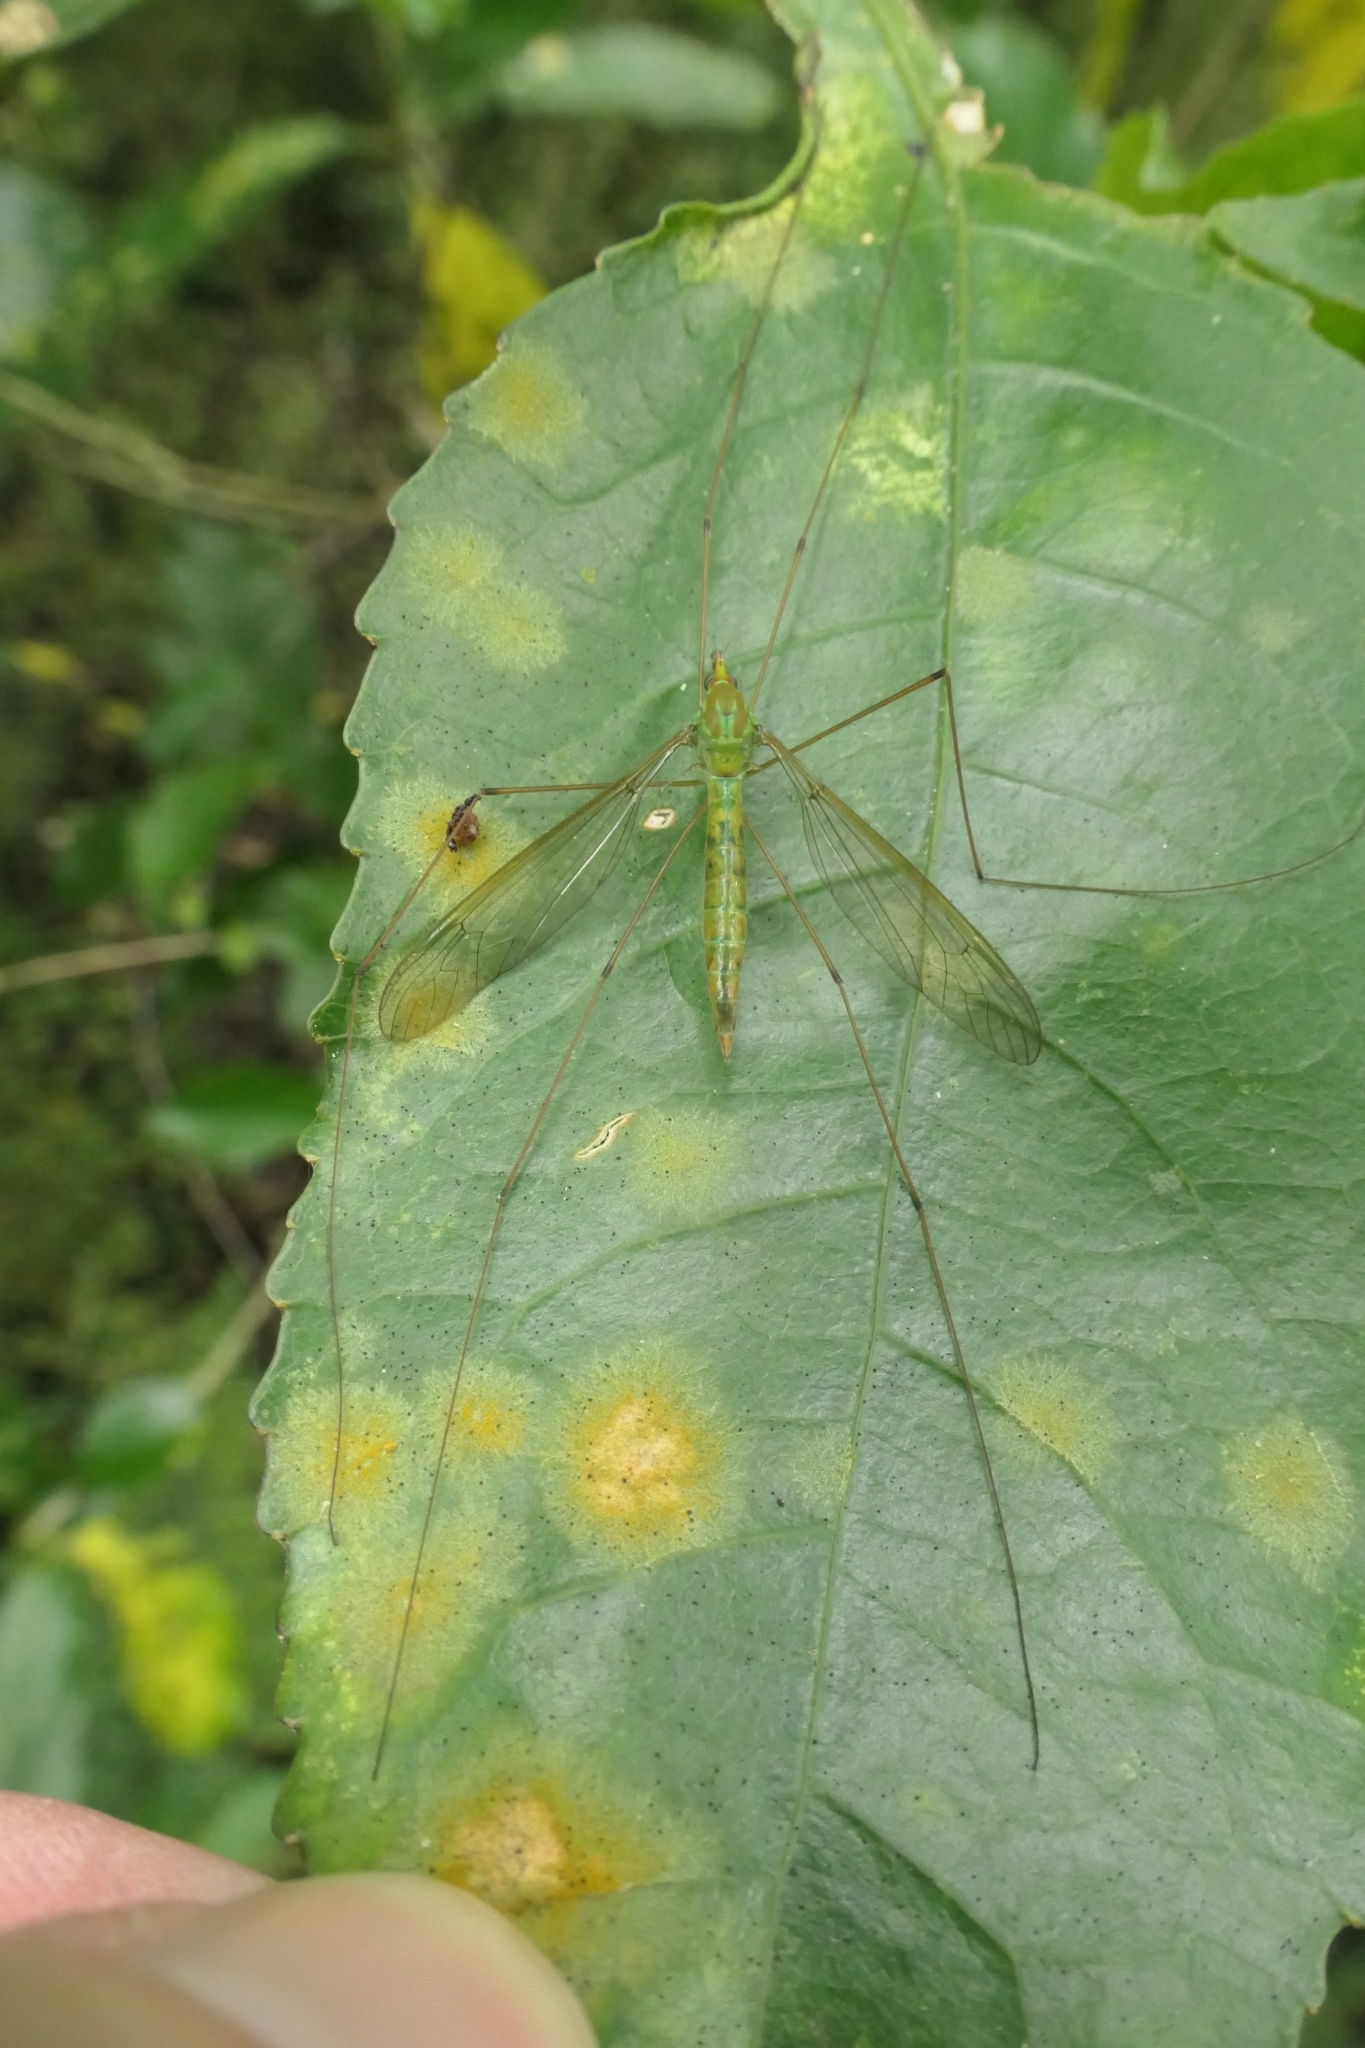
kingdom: Animalia
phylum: Arthropoda
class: Insecta
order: Diptera
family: Tipulidae
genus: Leptotarsus
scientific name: Leptotarsus virescens
